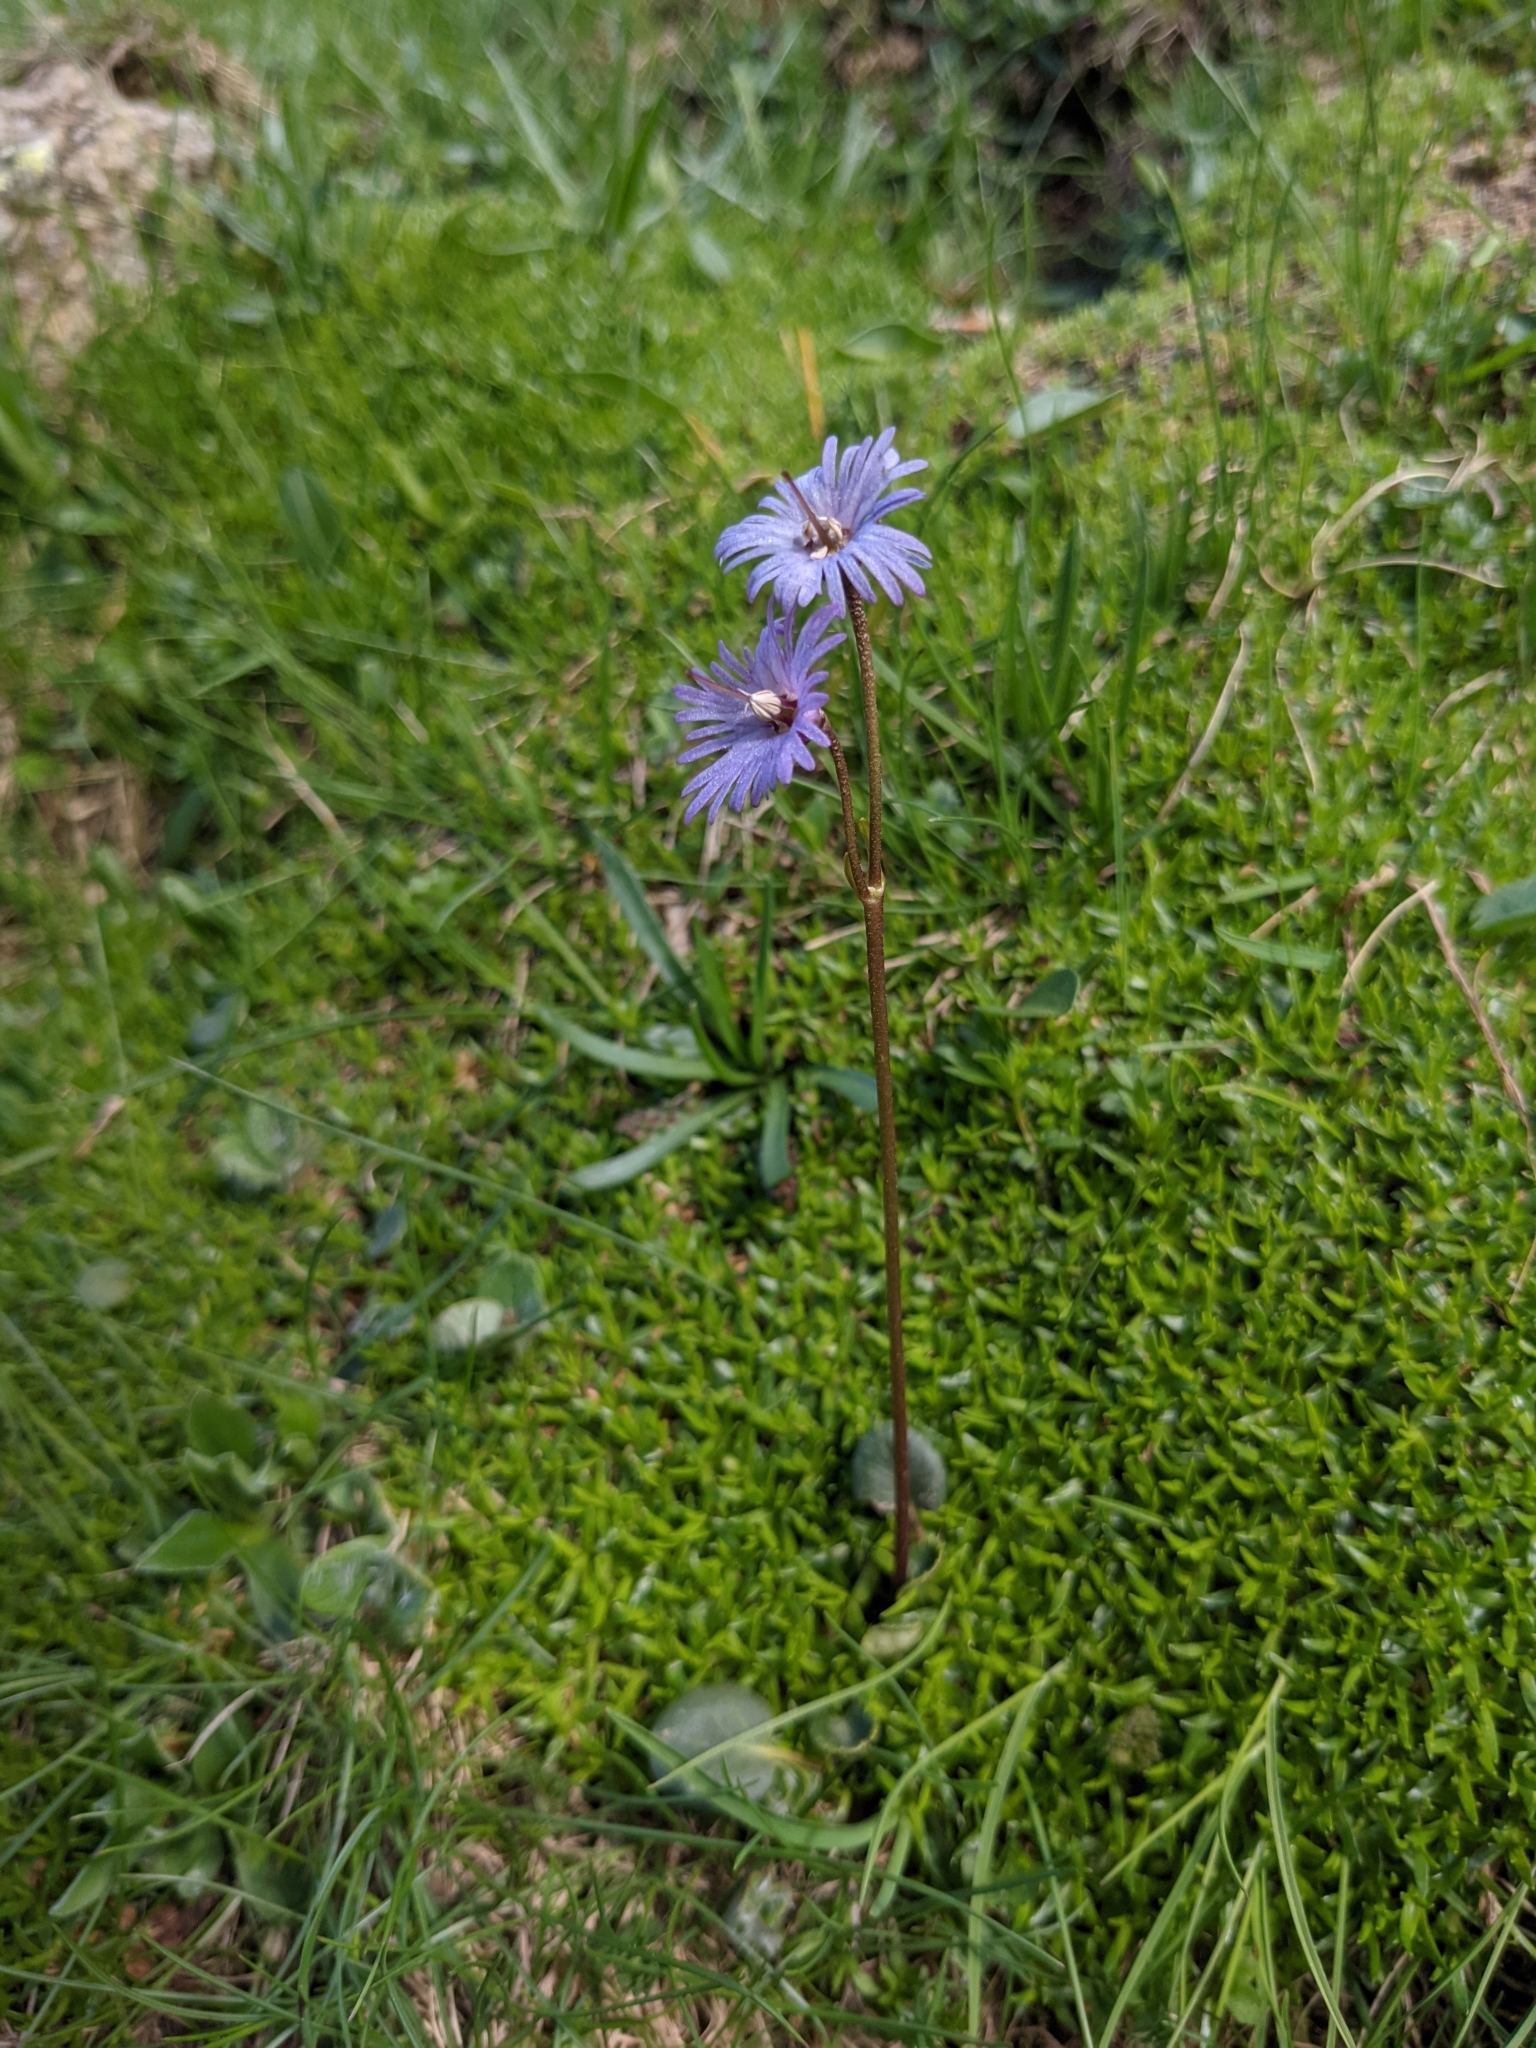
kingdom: Plantae
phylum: Tracheophyta
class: Magnoliopsida
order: Ericales
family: Primulaceae
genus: Soldanella
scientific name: Soldanella alpina
